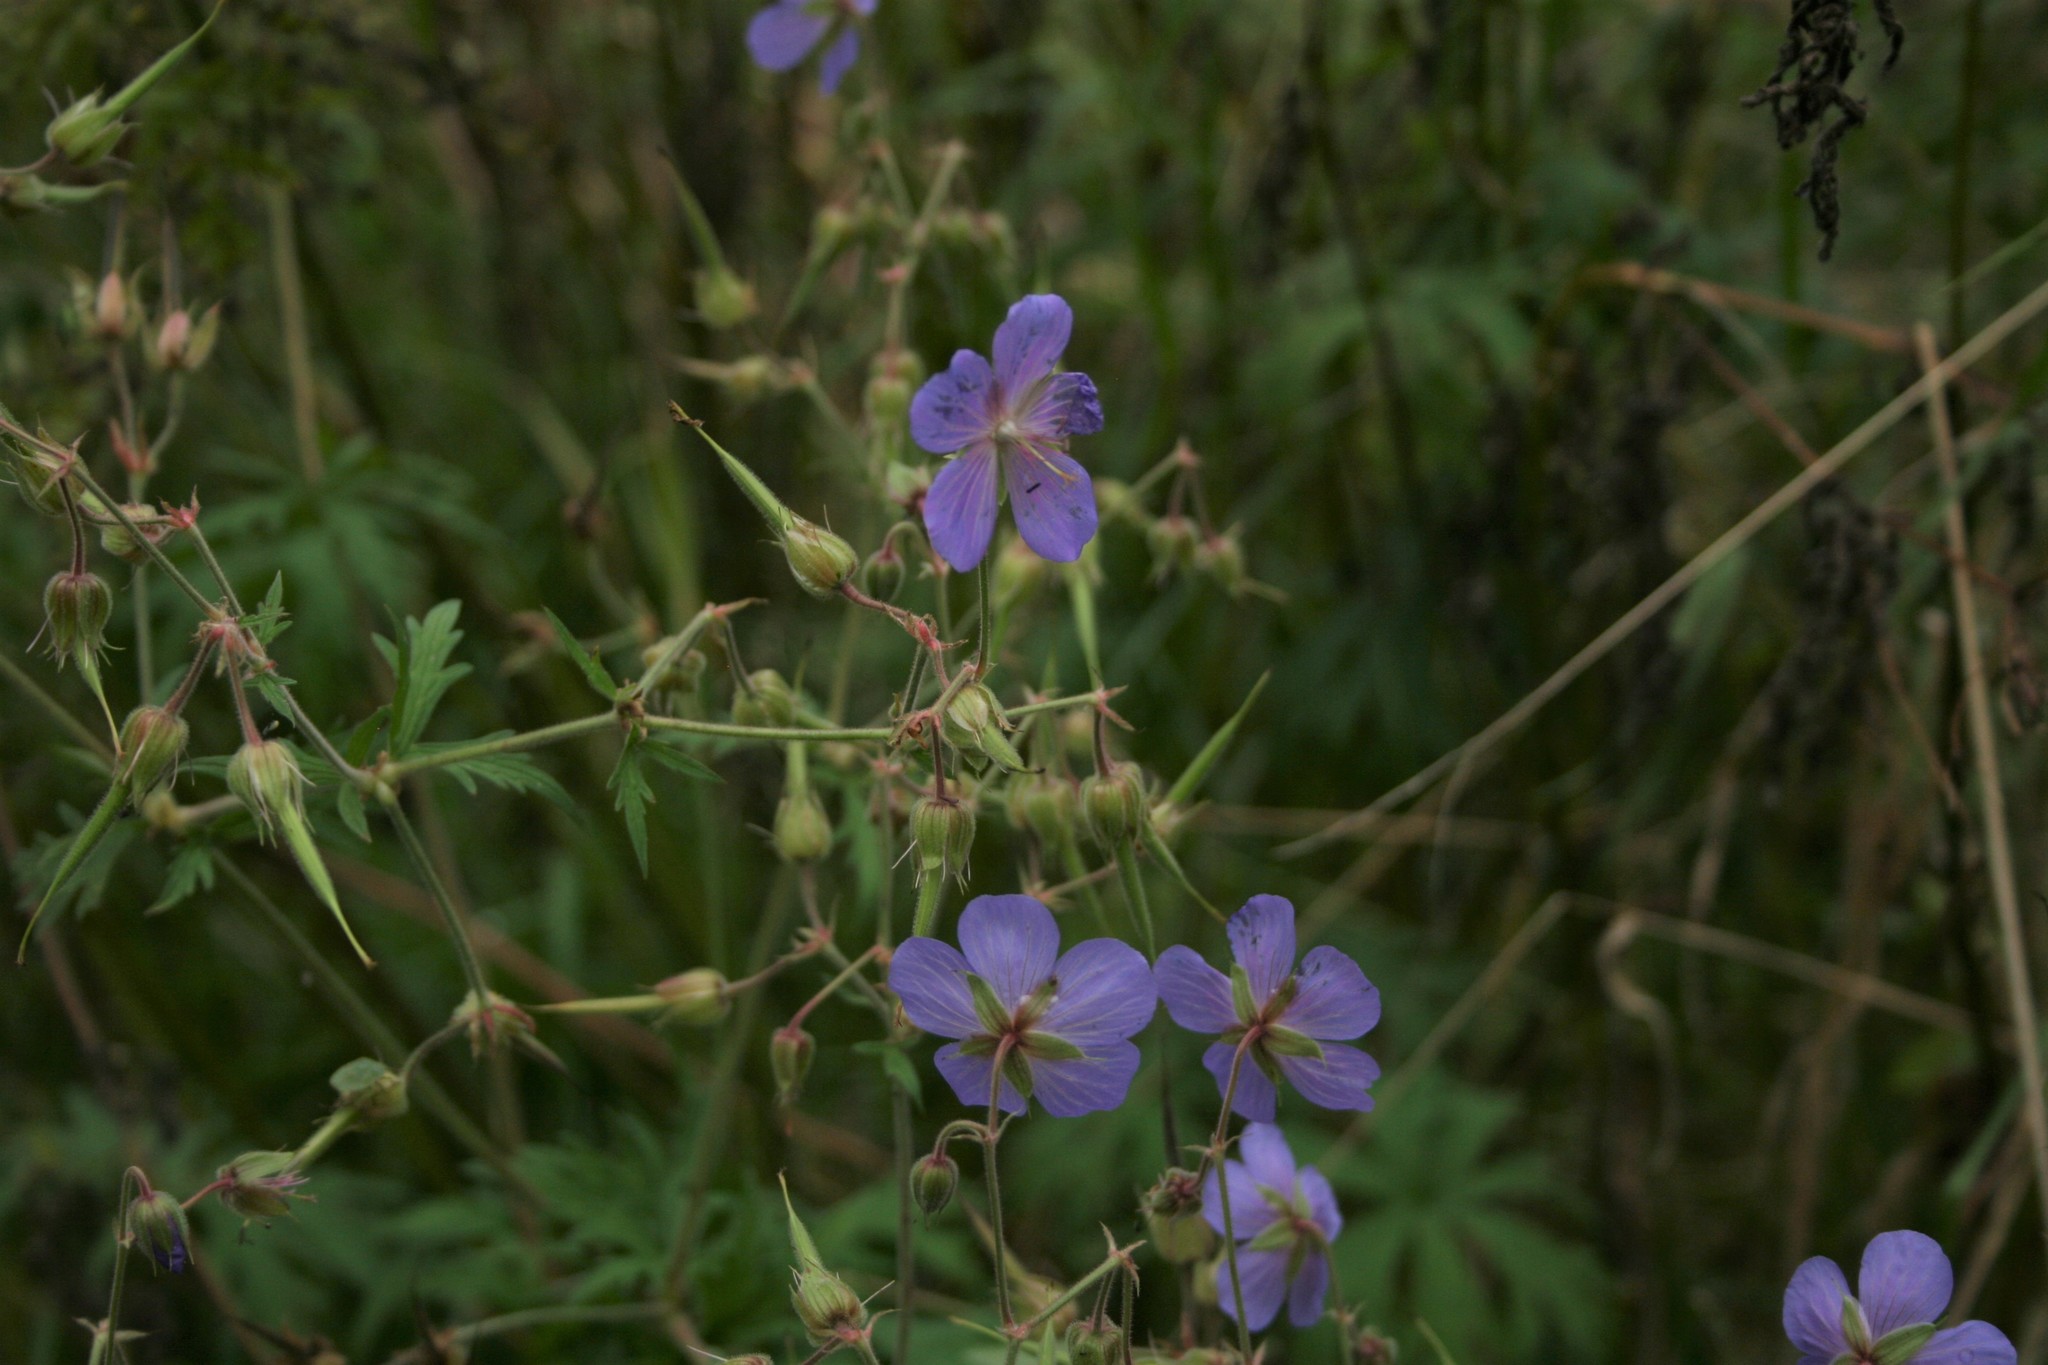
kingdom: Plantae
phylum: Tracheophyta
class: Magnoliopsida
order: Geraniales
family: Geraniaceae
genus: Geranium
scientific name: Geranium pratense
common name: Meadow crane's-bill
